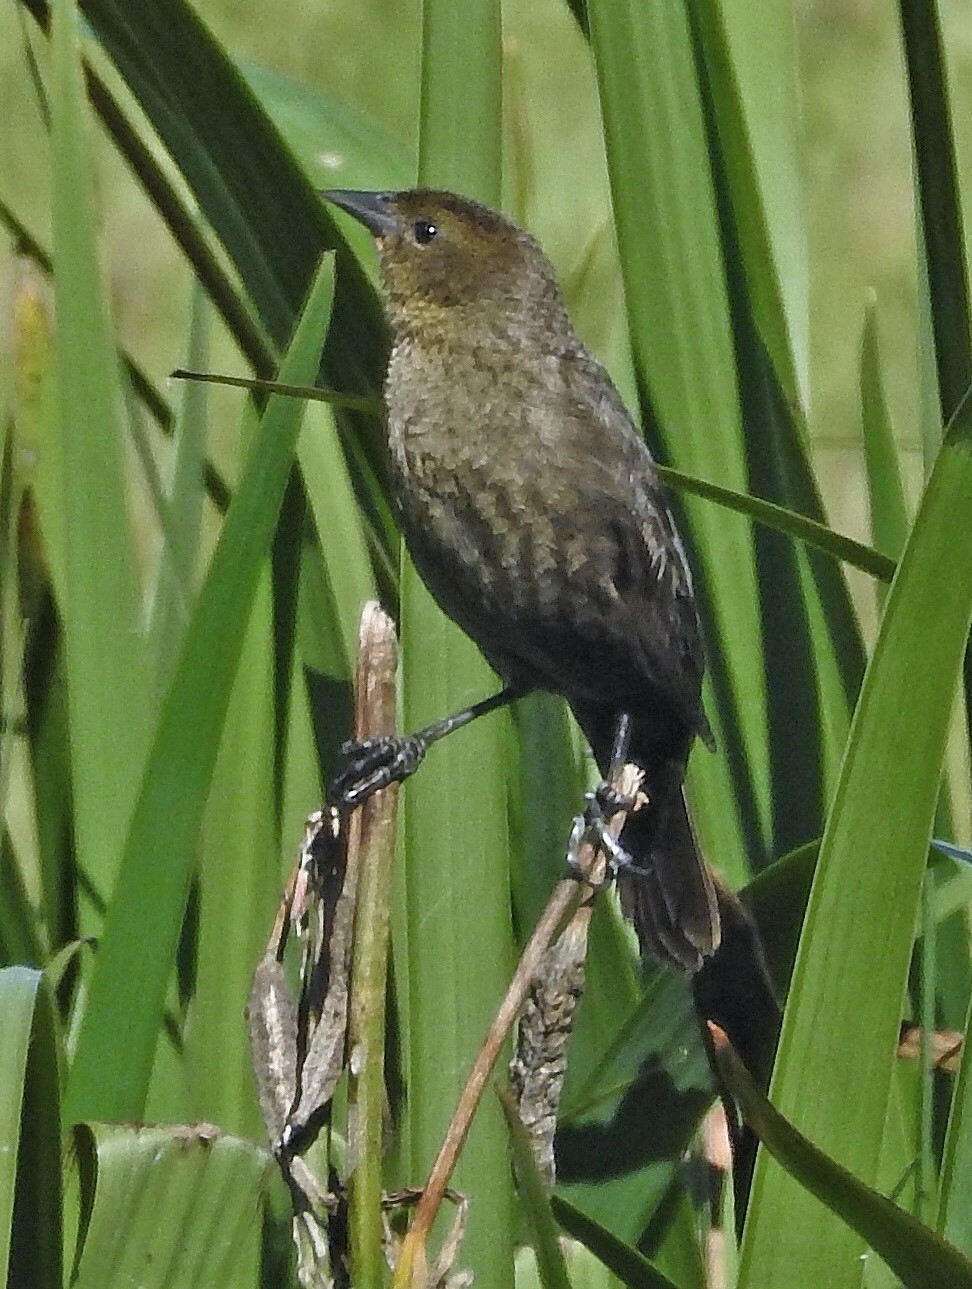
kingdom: Animalia
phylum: Chordata
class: Aves
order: Passeriformes
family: Icteridae
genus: Chrysomus
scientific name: Chrysomus ruficapillus
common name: Chestnut-capped blackbird
